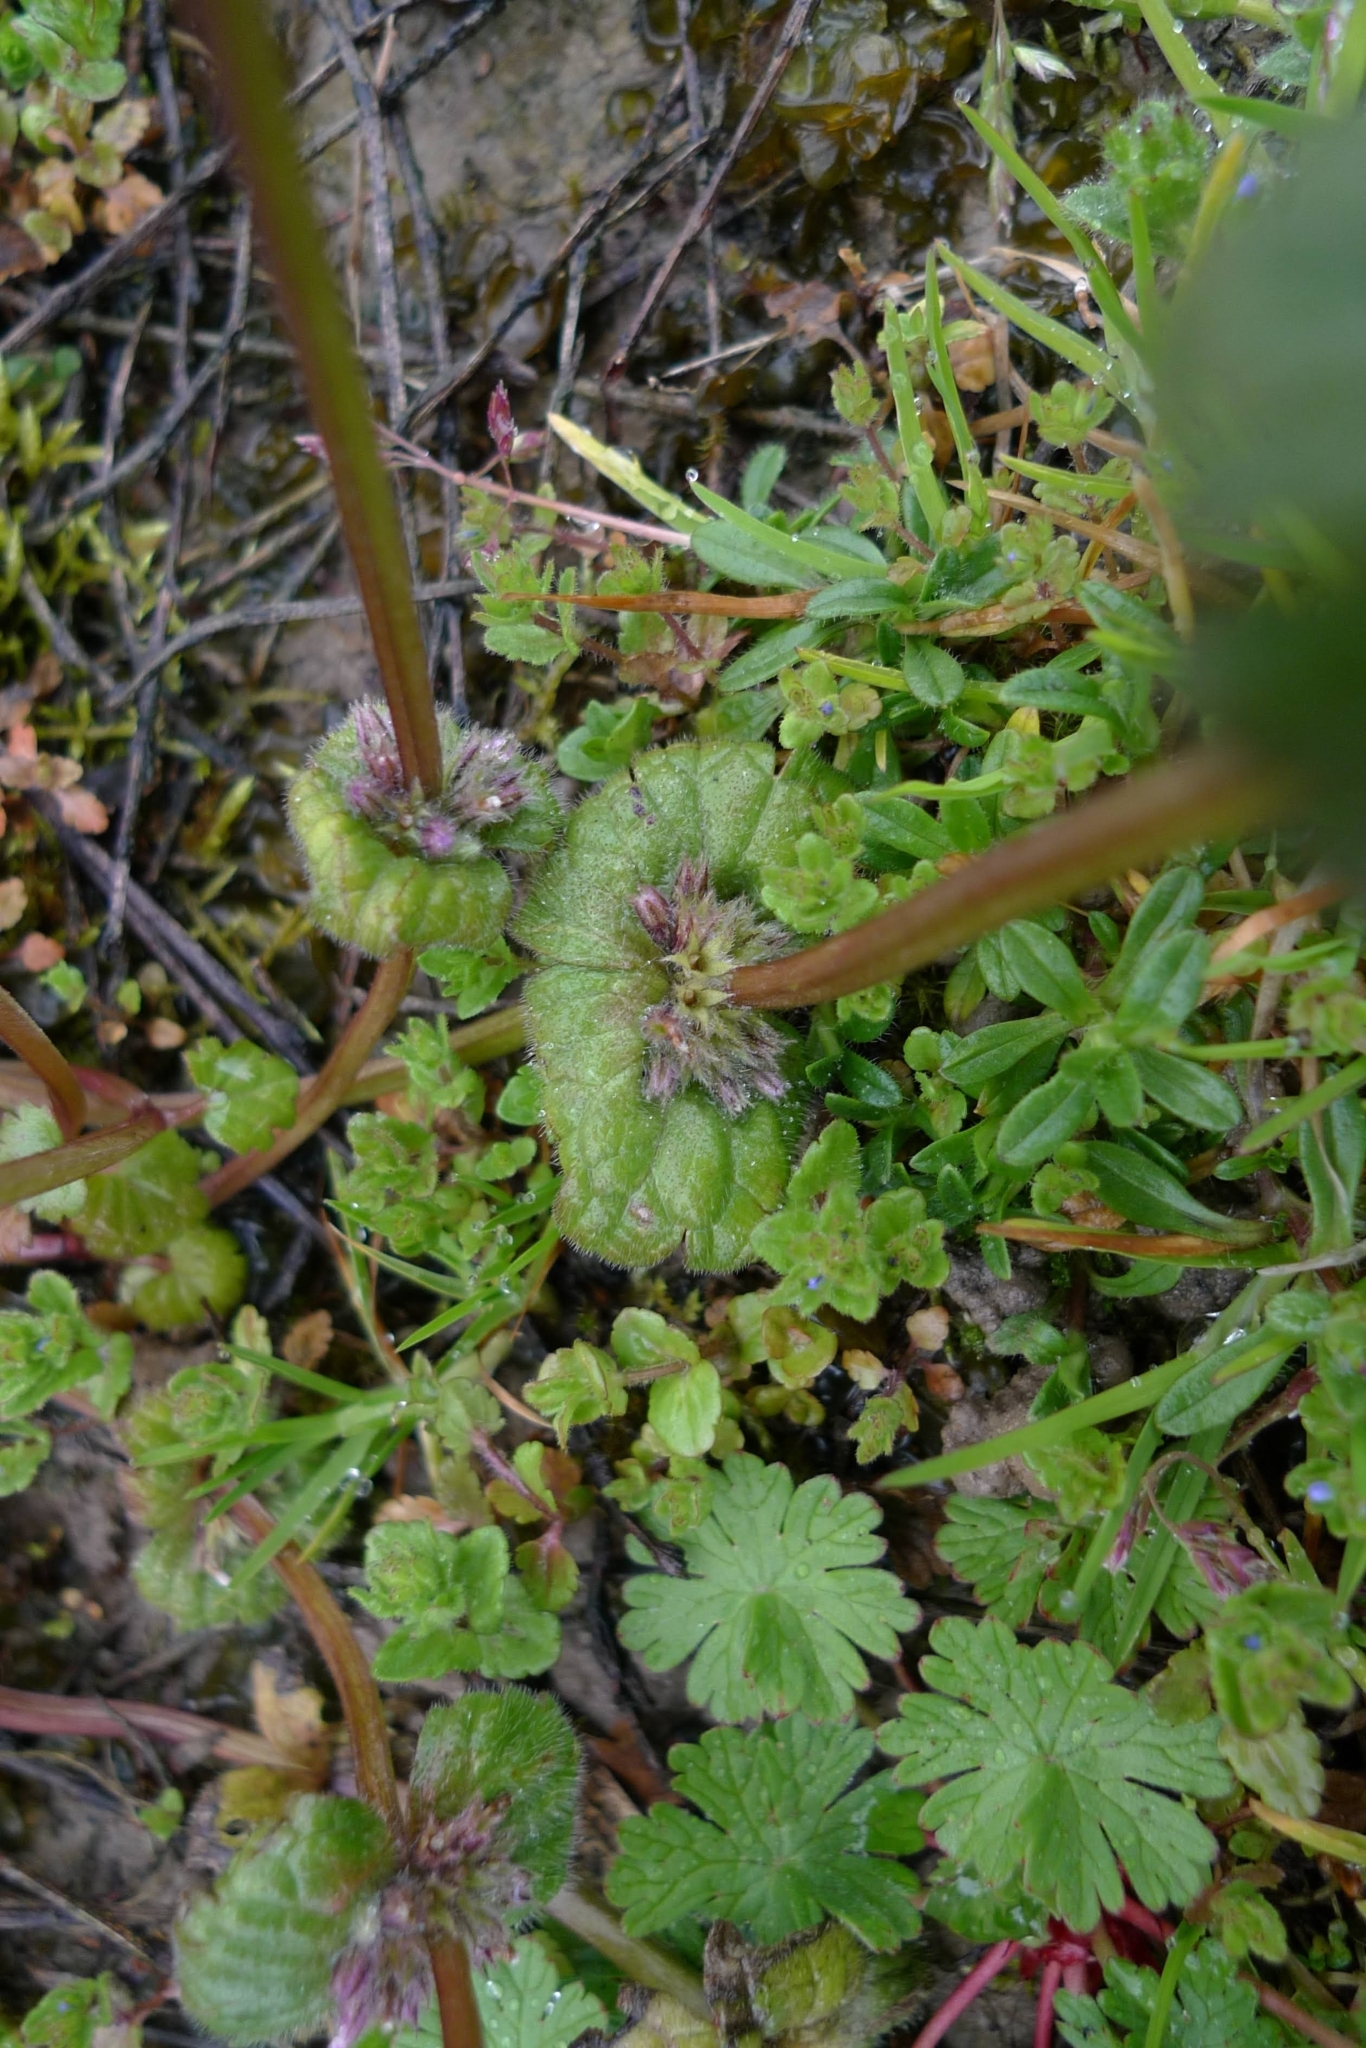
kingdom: Plantae
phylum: Tracheophyta
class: Magnoliopsida
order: Lamiales
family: Lamiaceae
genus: Lamium
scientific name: Lamium amplexicaule
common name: Henbit dead-nettle
